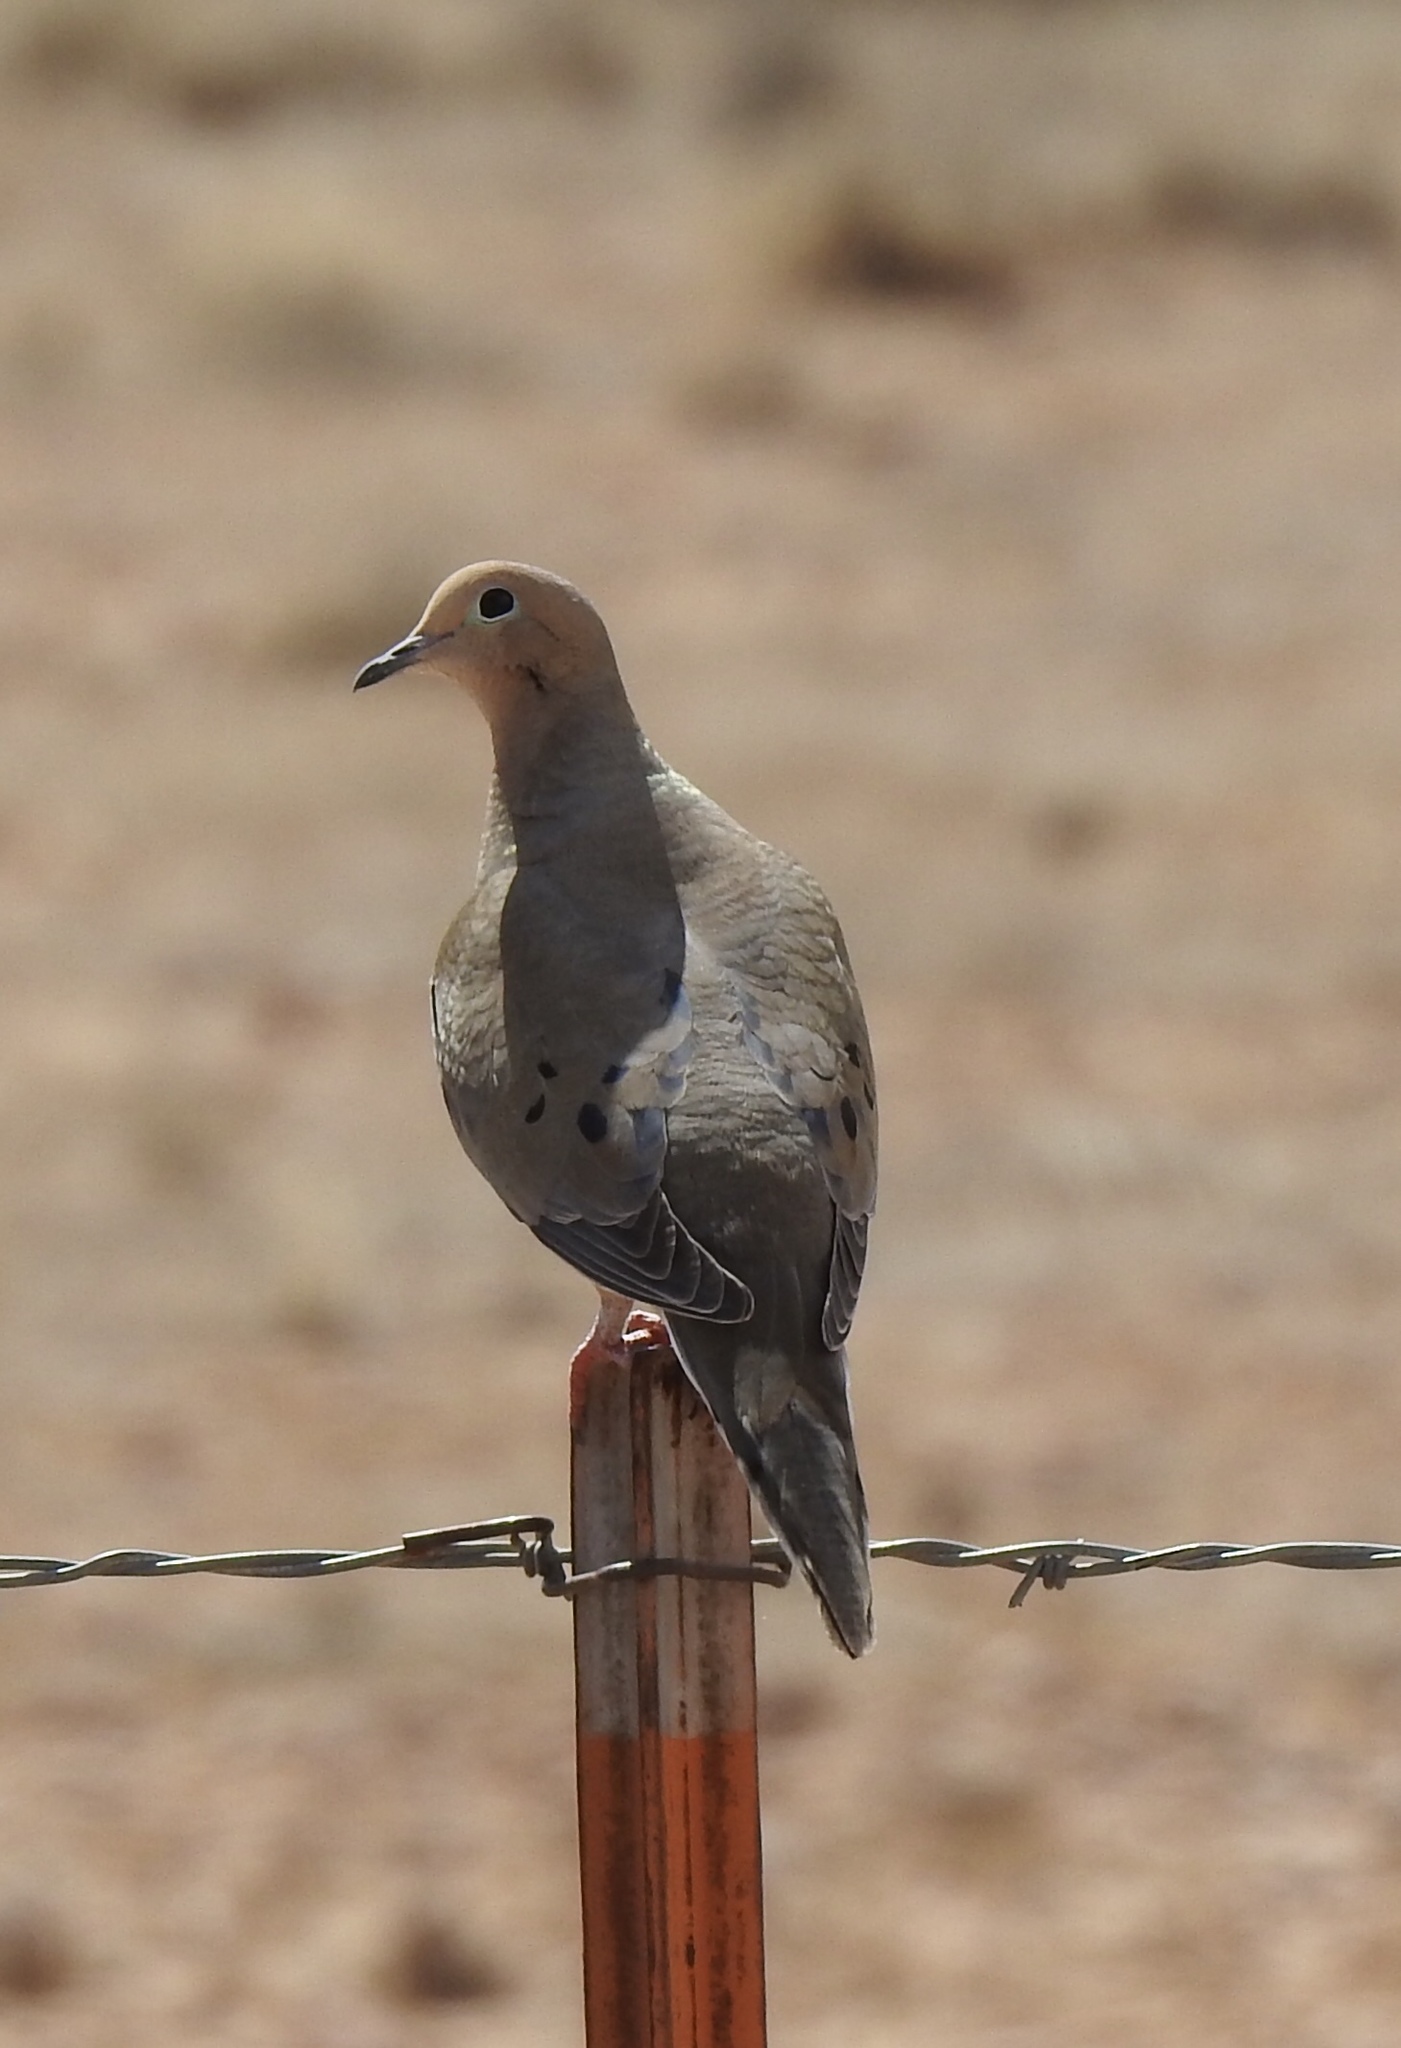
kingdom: Animalia
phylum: Chordata
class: Aves
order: Columbiformes
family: Columbidae
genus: Zenaida
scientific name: Zenaida macroura
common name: Mourning dove
